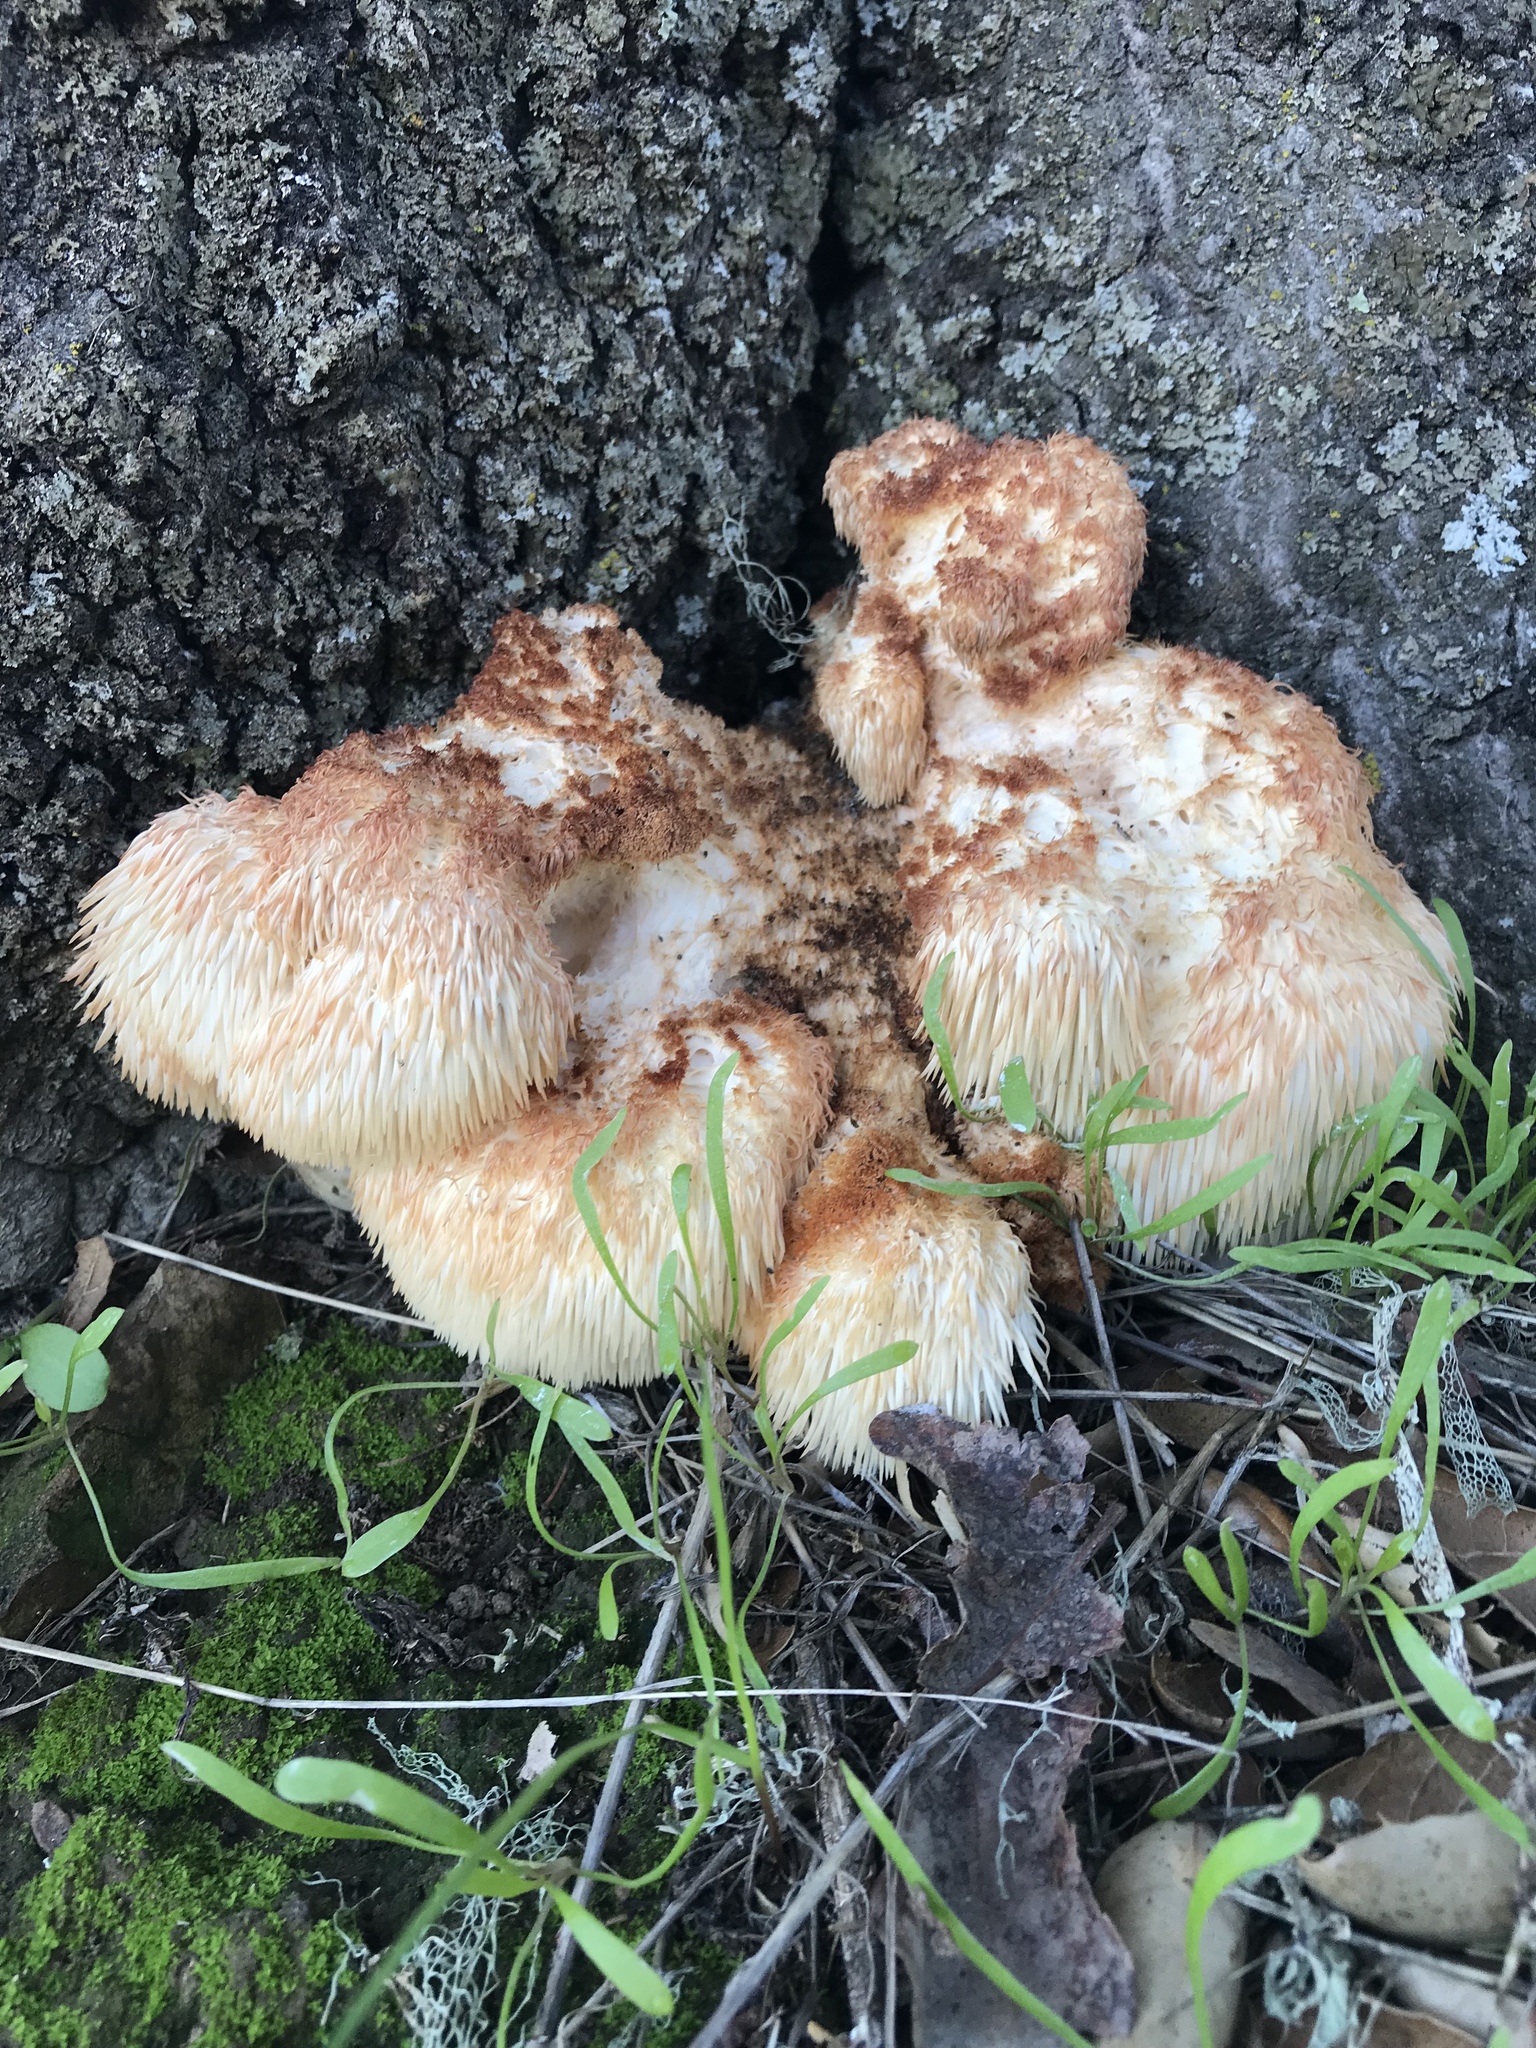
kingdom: Fungi
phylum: Basidiomycota
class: Agaricomycetes
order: Russulales
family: Hericiaceae
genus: Hericium
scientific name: Hericium erinaceus
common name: Bearded tooth
